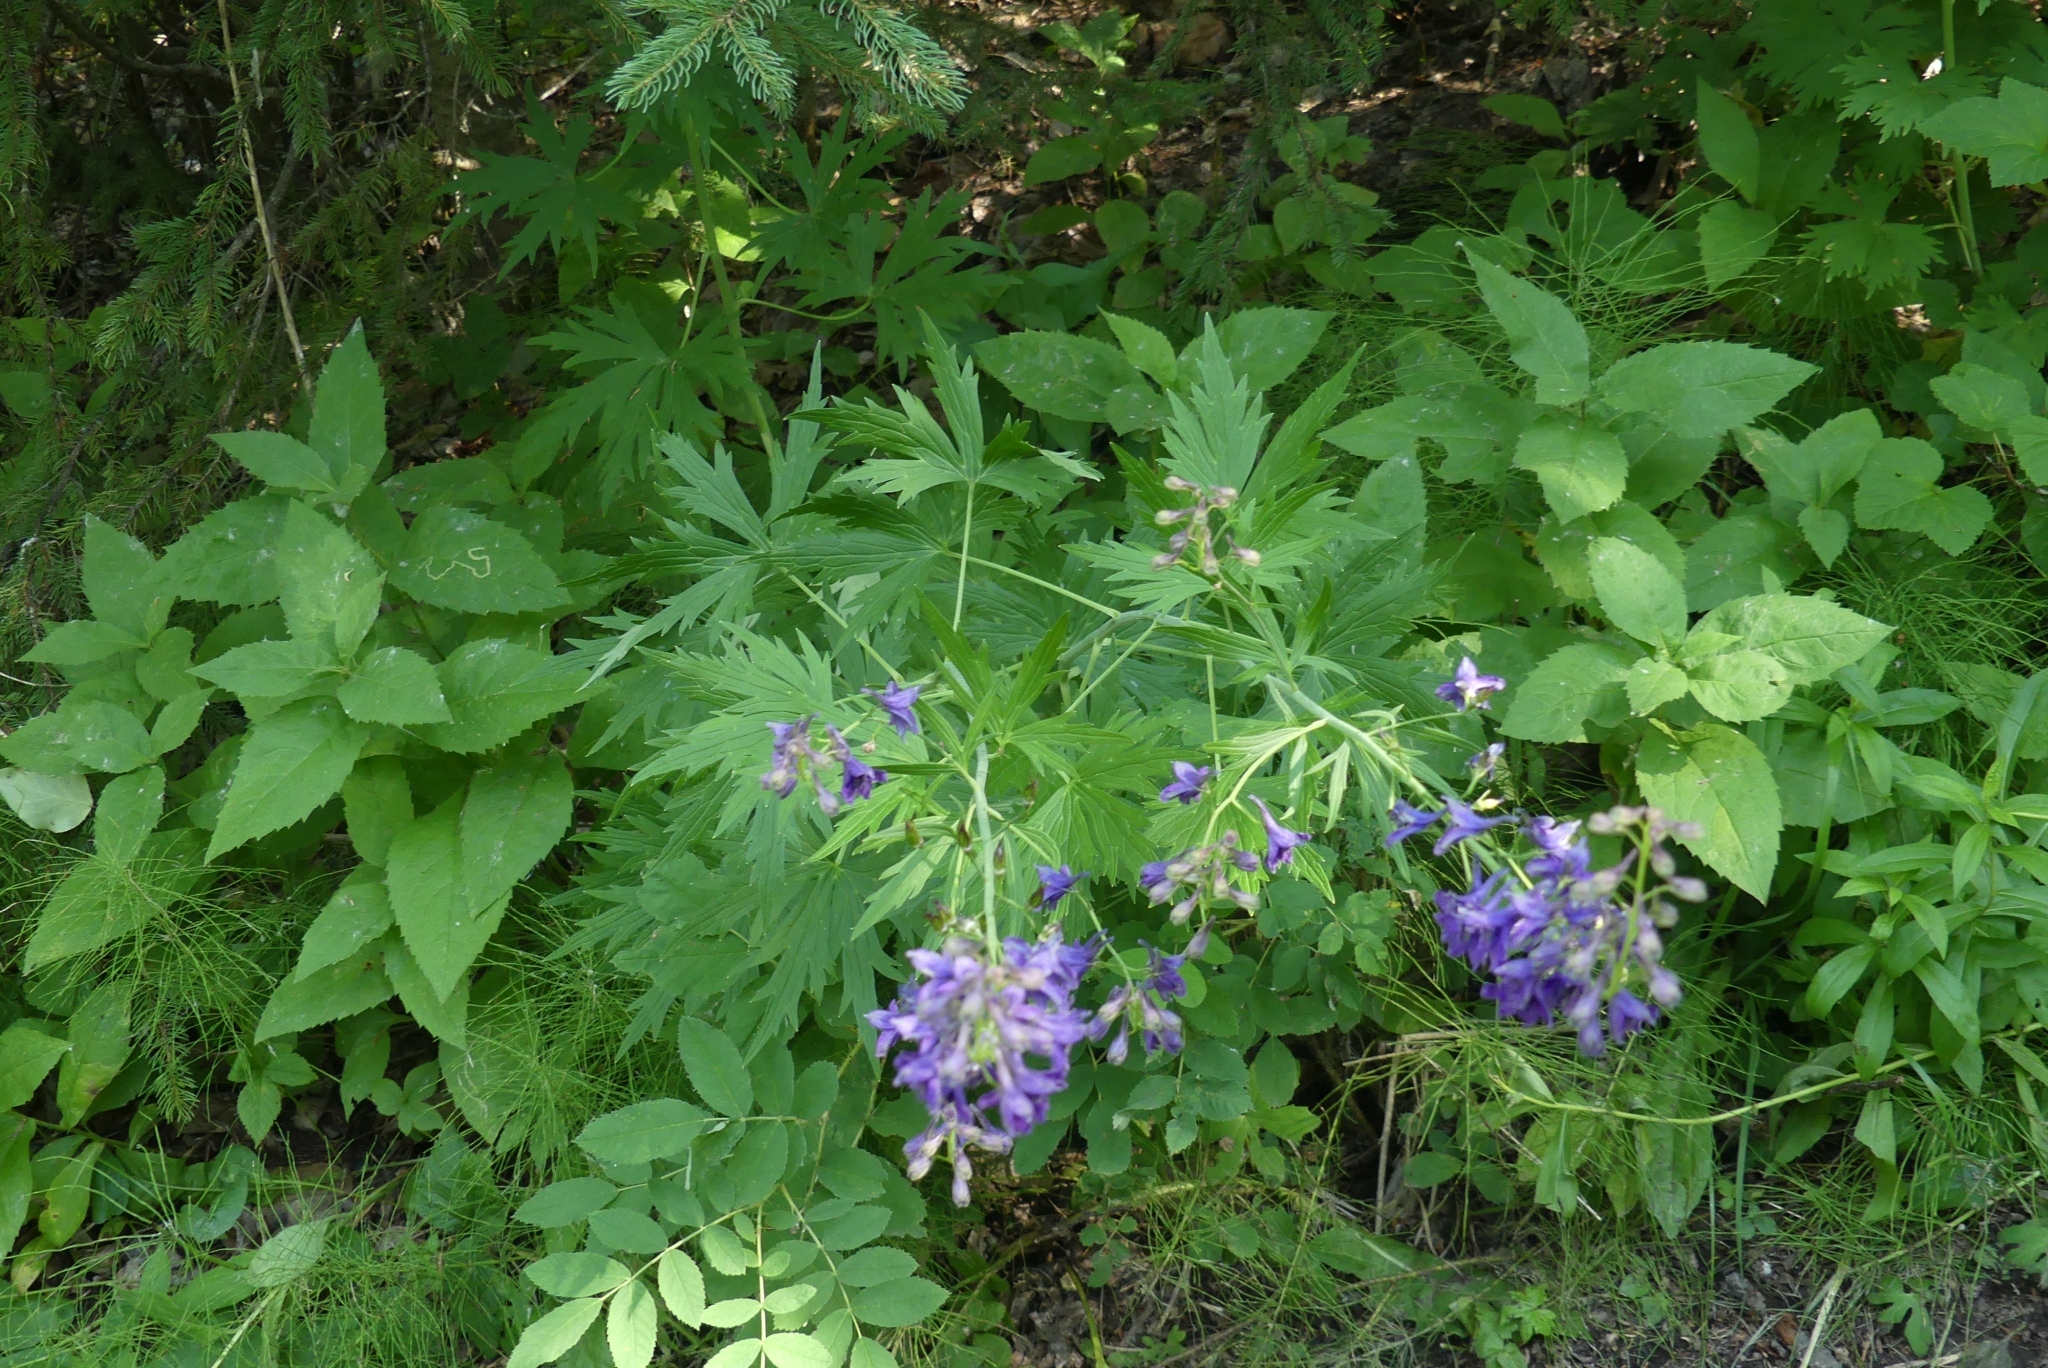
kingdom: Plantae
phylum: Tracheophyta
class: Magnoliopsida
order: Ranunculales
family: Ranunculaceae
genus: Delphinium
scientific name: Delphinium glaucum
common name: Brown's larkspur
